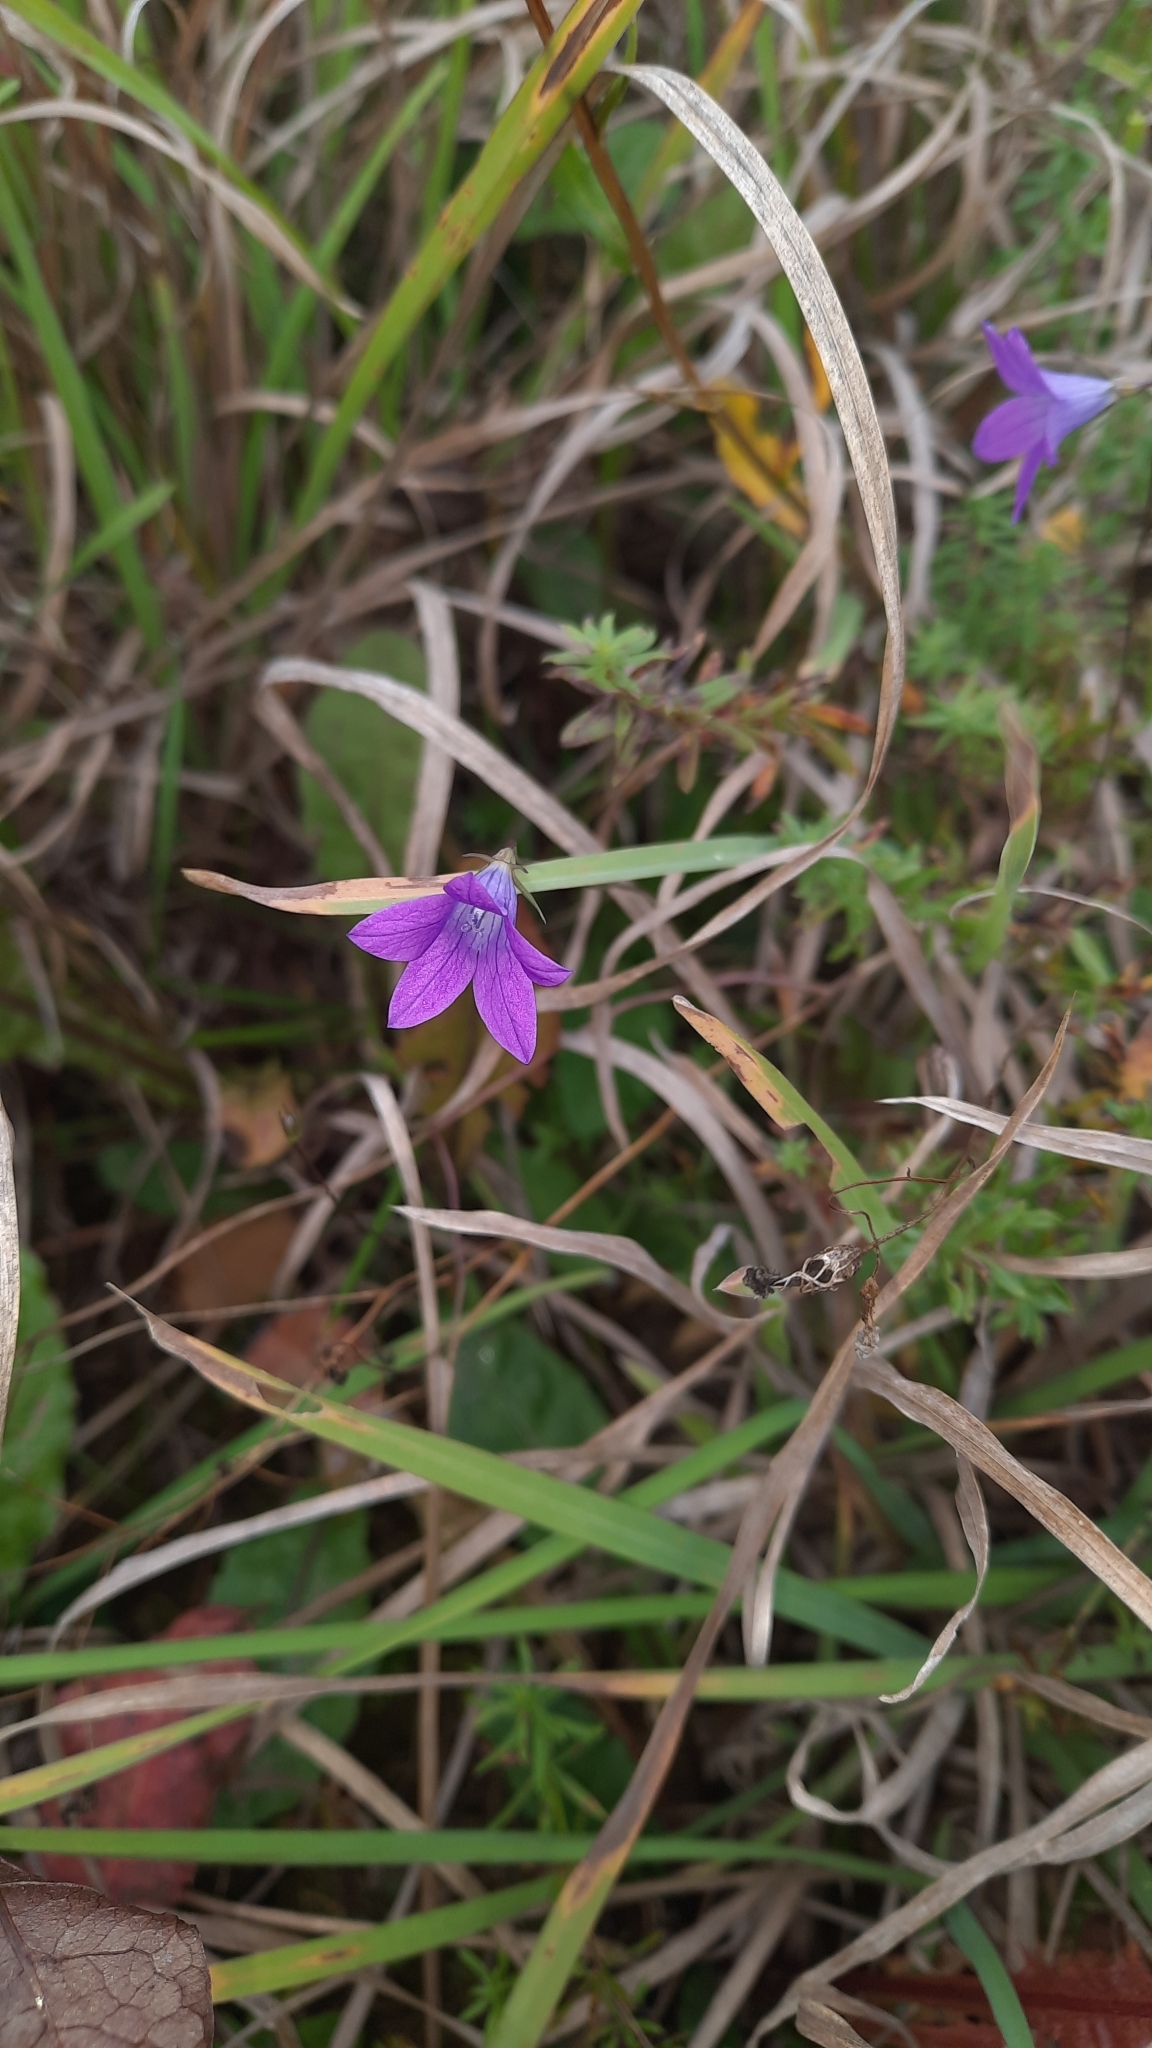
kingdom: Plantae
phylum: Tracheophyta
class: Magnoliopsida
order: Asterales
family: Campanulaceae
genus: Campanula
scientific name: Campanula patula
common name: Spreading bellflower
